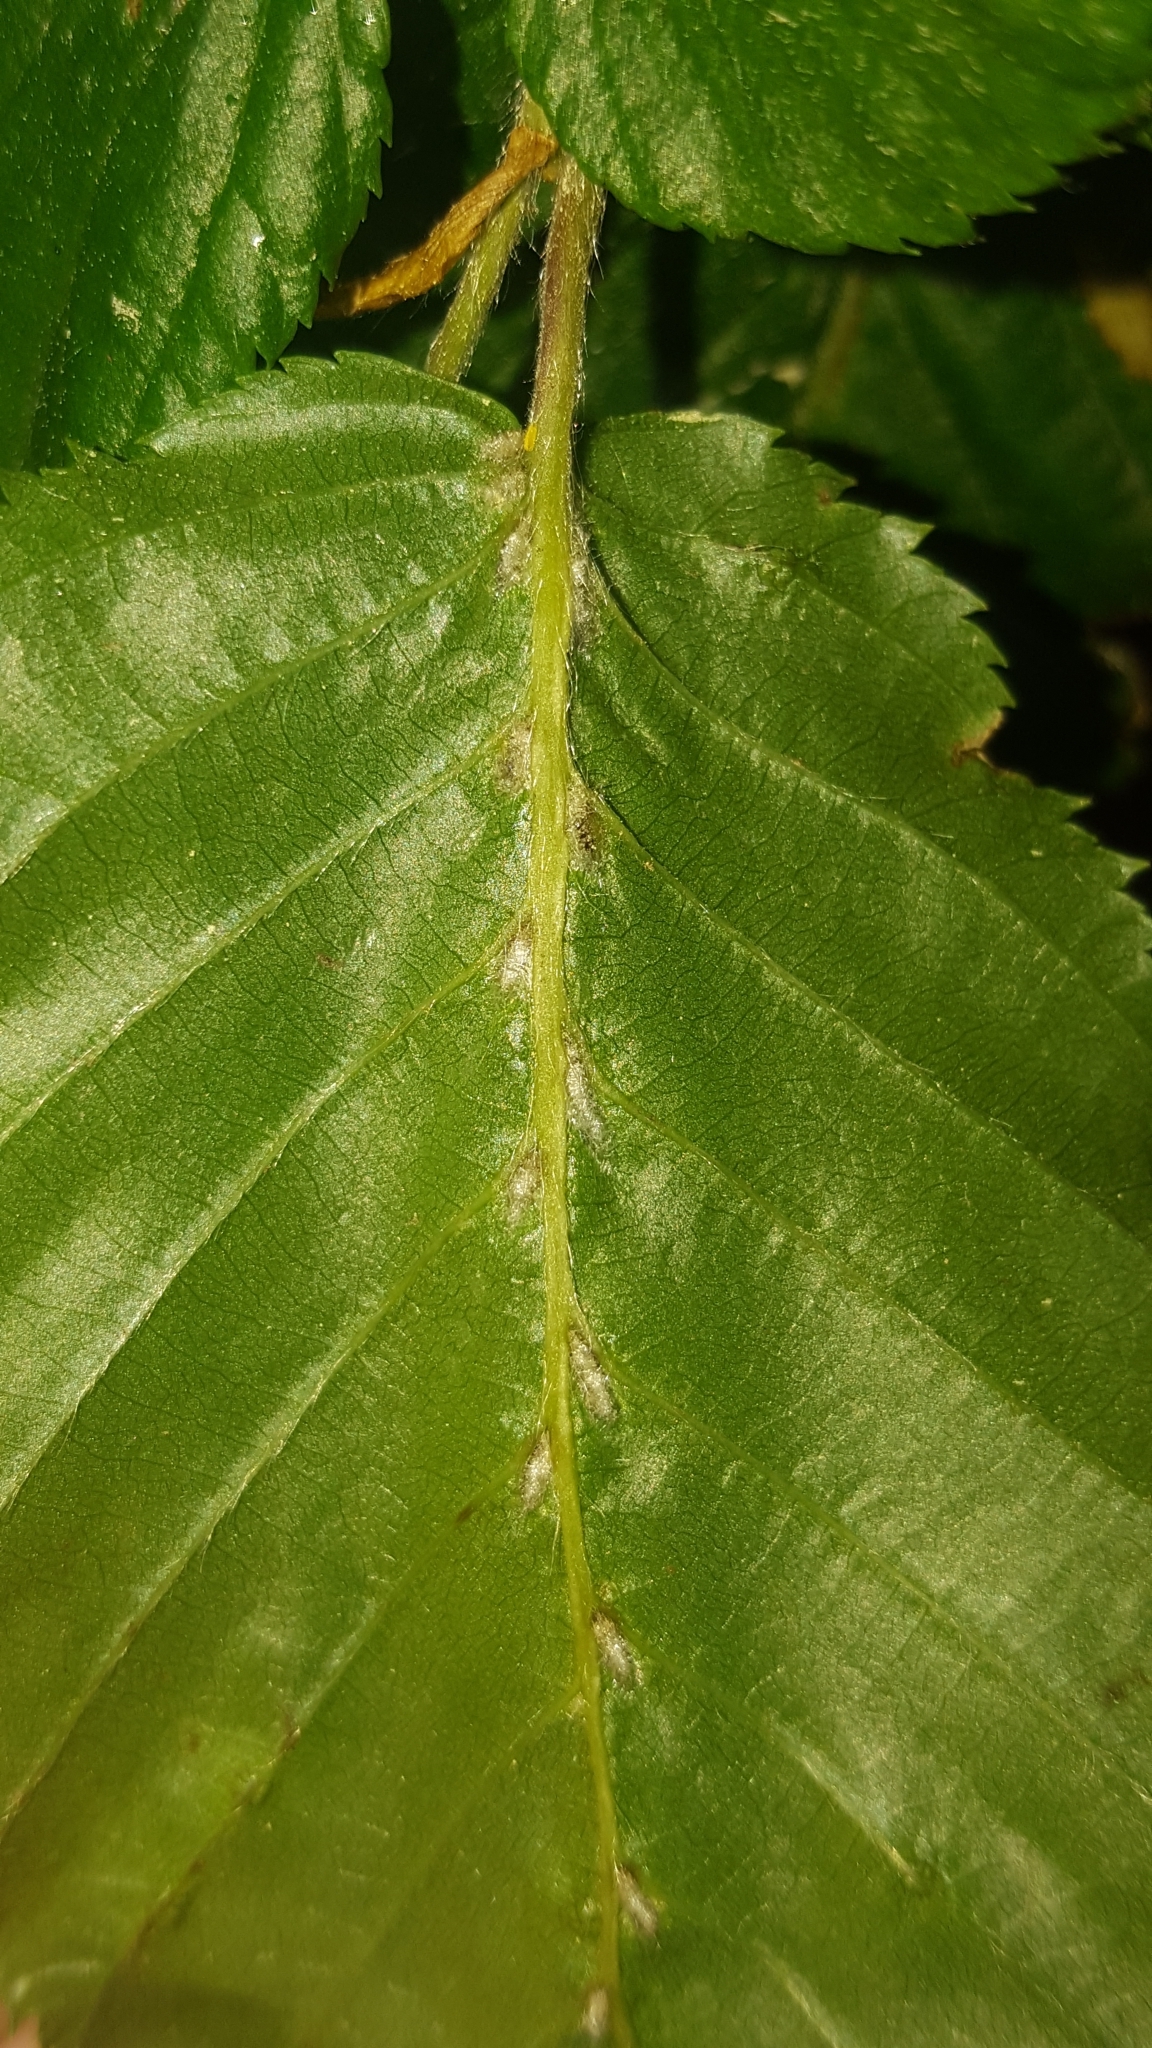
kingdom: Animalia
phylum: Arthropoda
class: Arachnida
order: Trombidiformes
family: Eriophyidae
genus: Aceria
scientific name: Aceria tenellus
